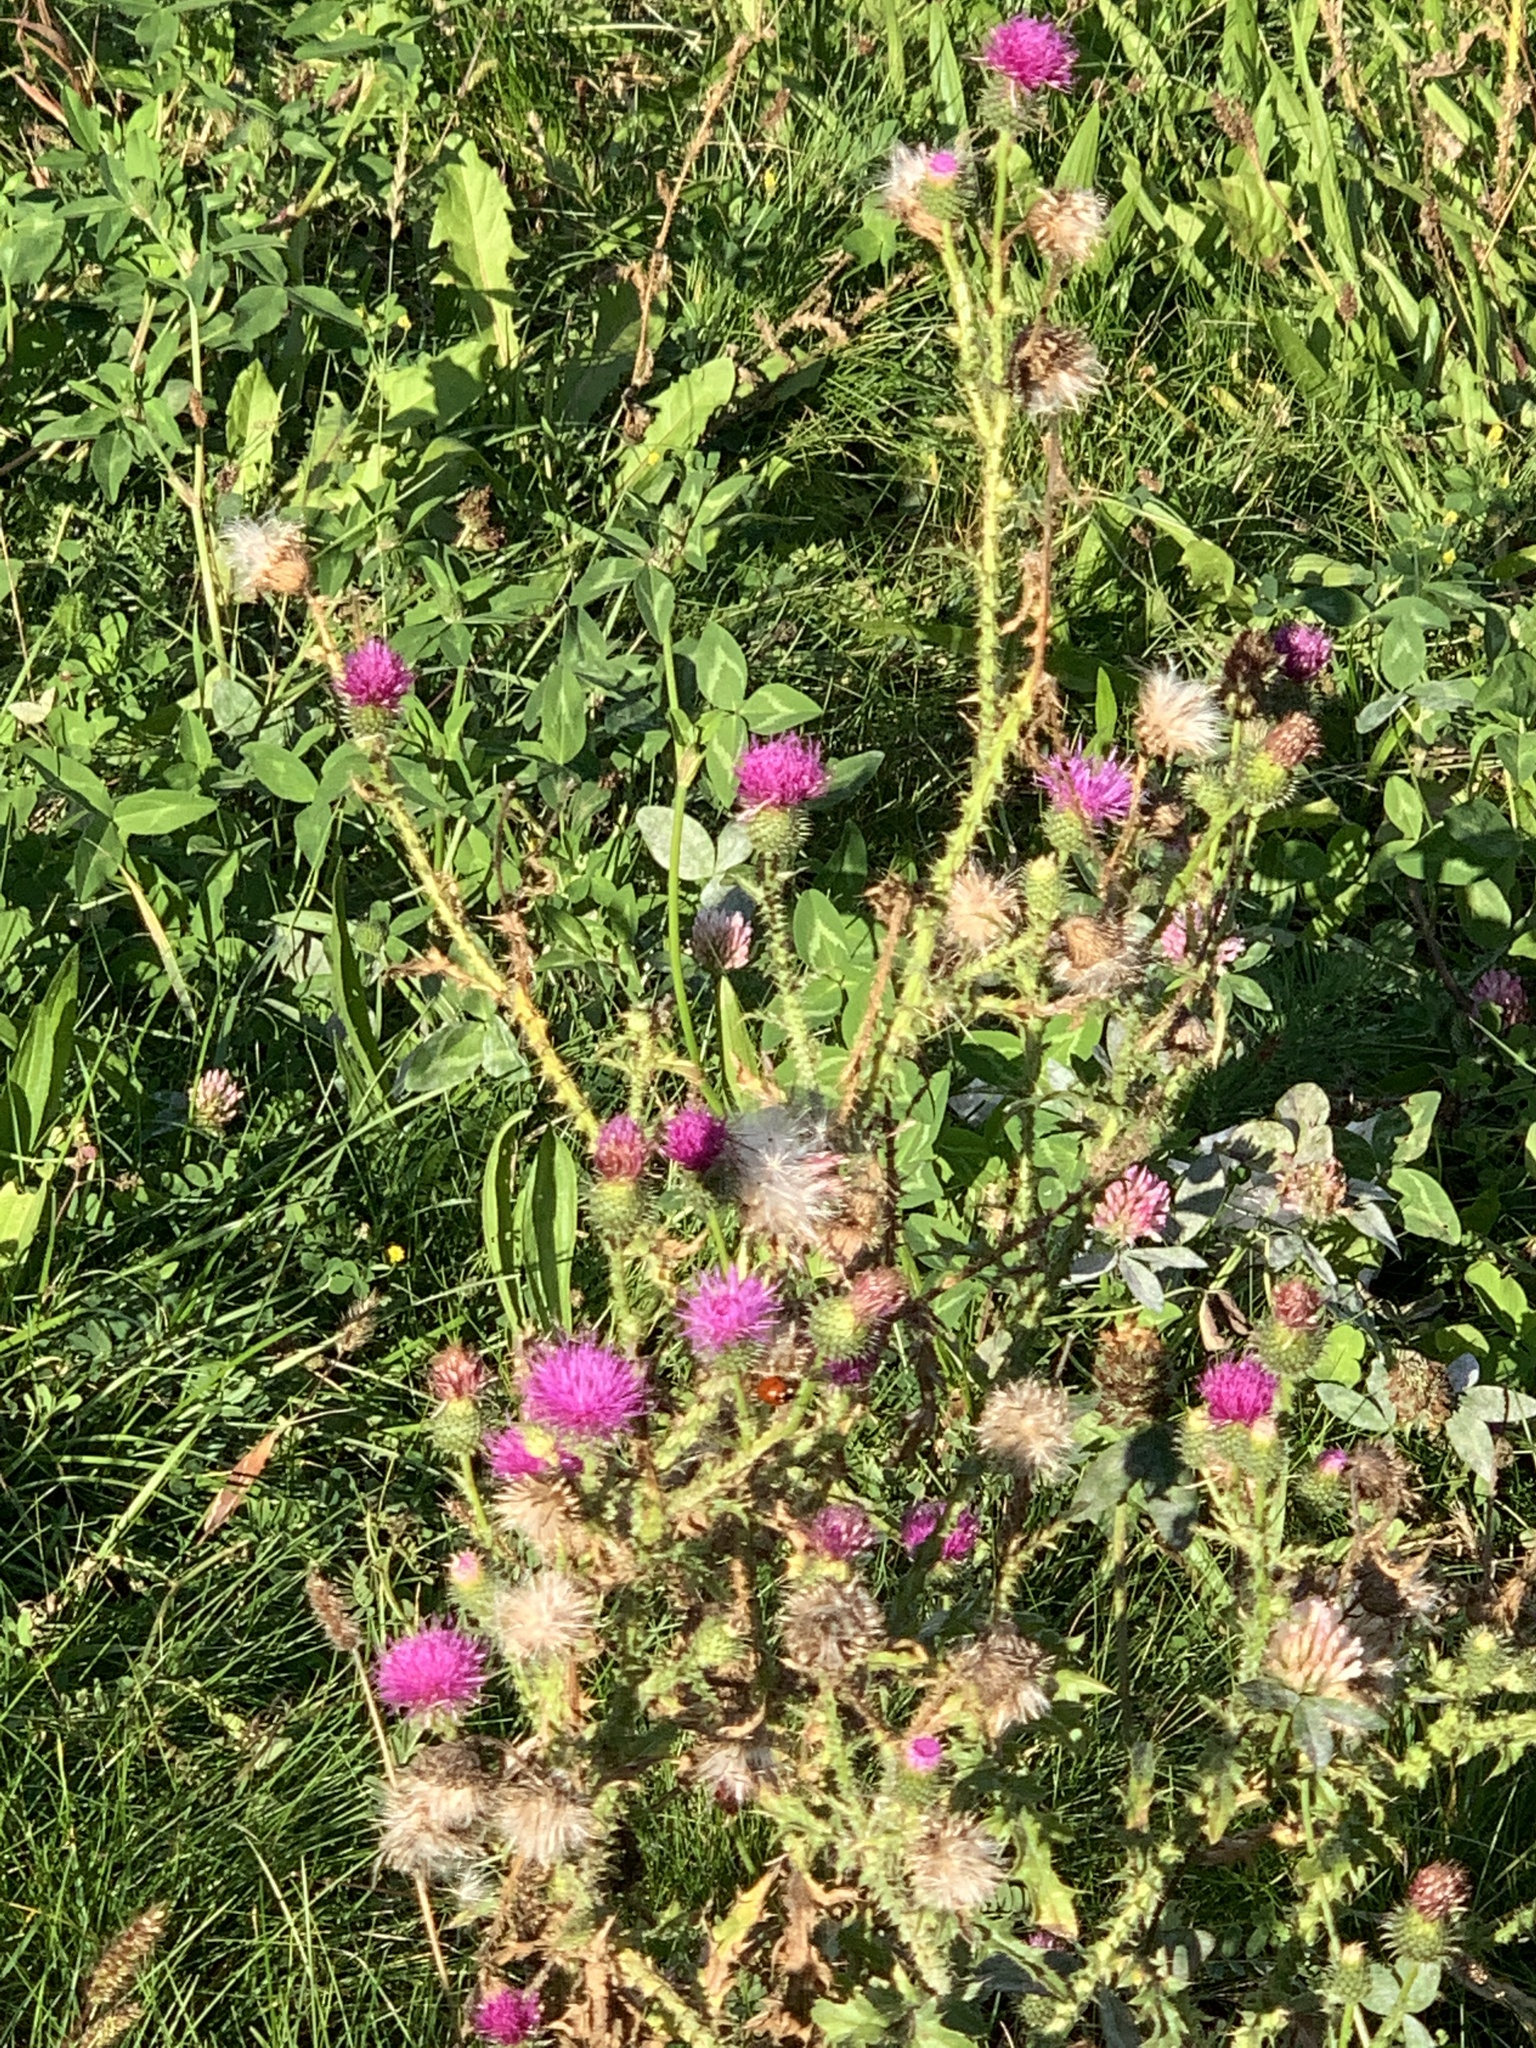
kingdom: Plantae
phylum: Tracheophyta
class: Magnoliopsida
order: Asterales
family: Asteraceae
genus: Carduus
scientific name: Carduus acanthoides
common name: Plumeless thistle
